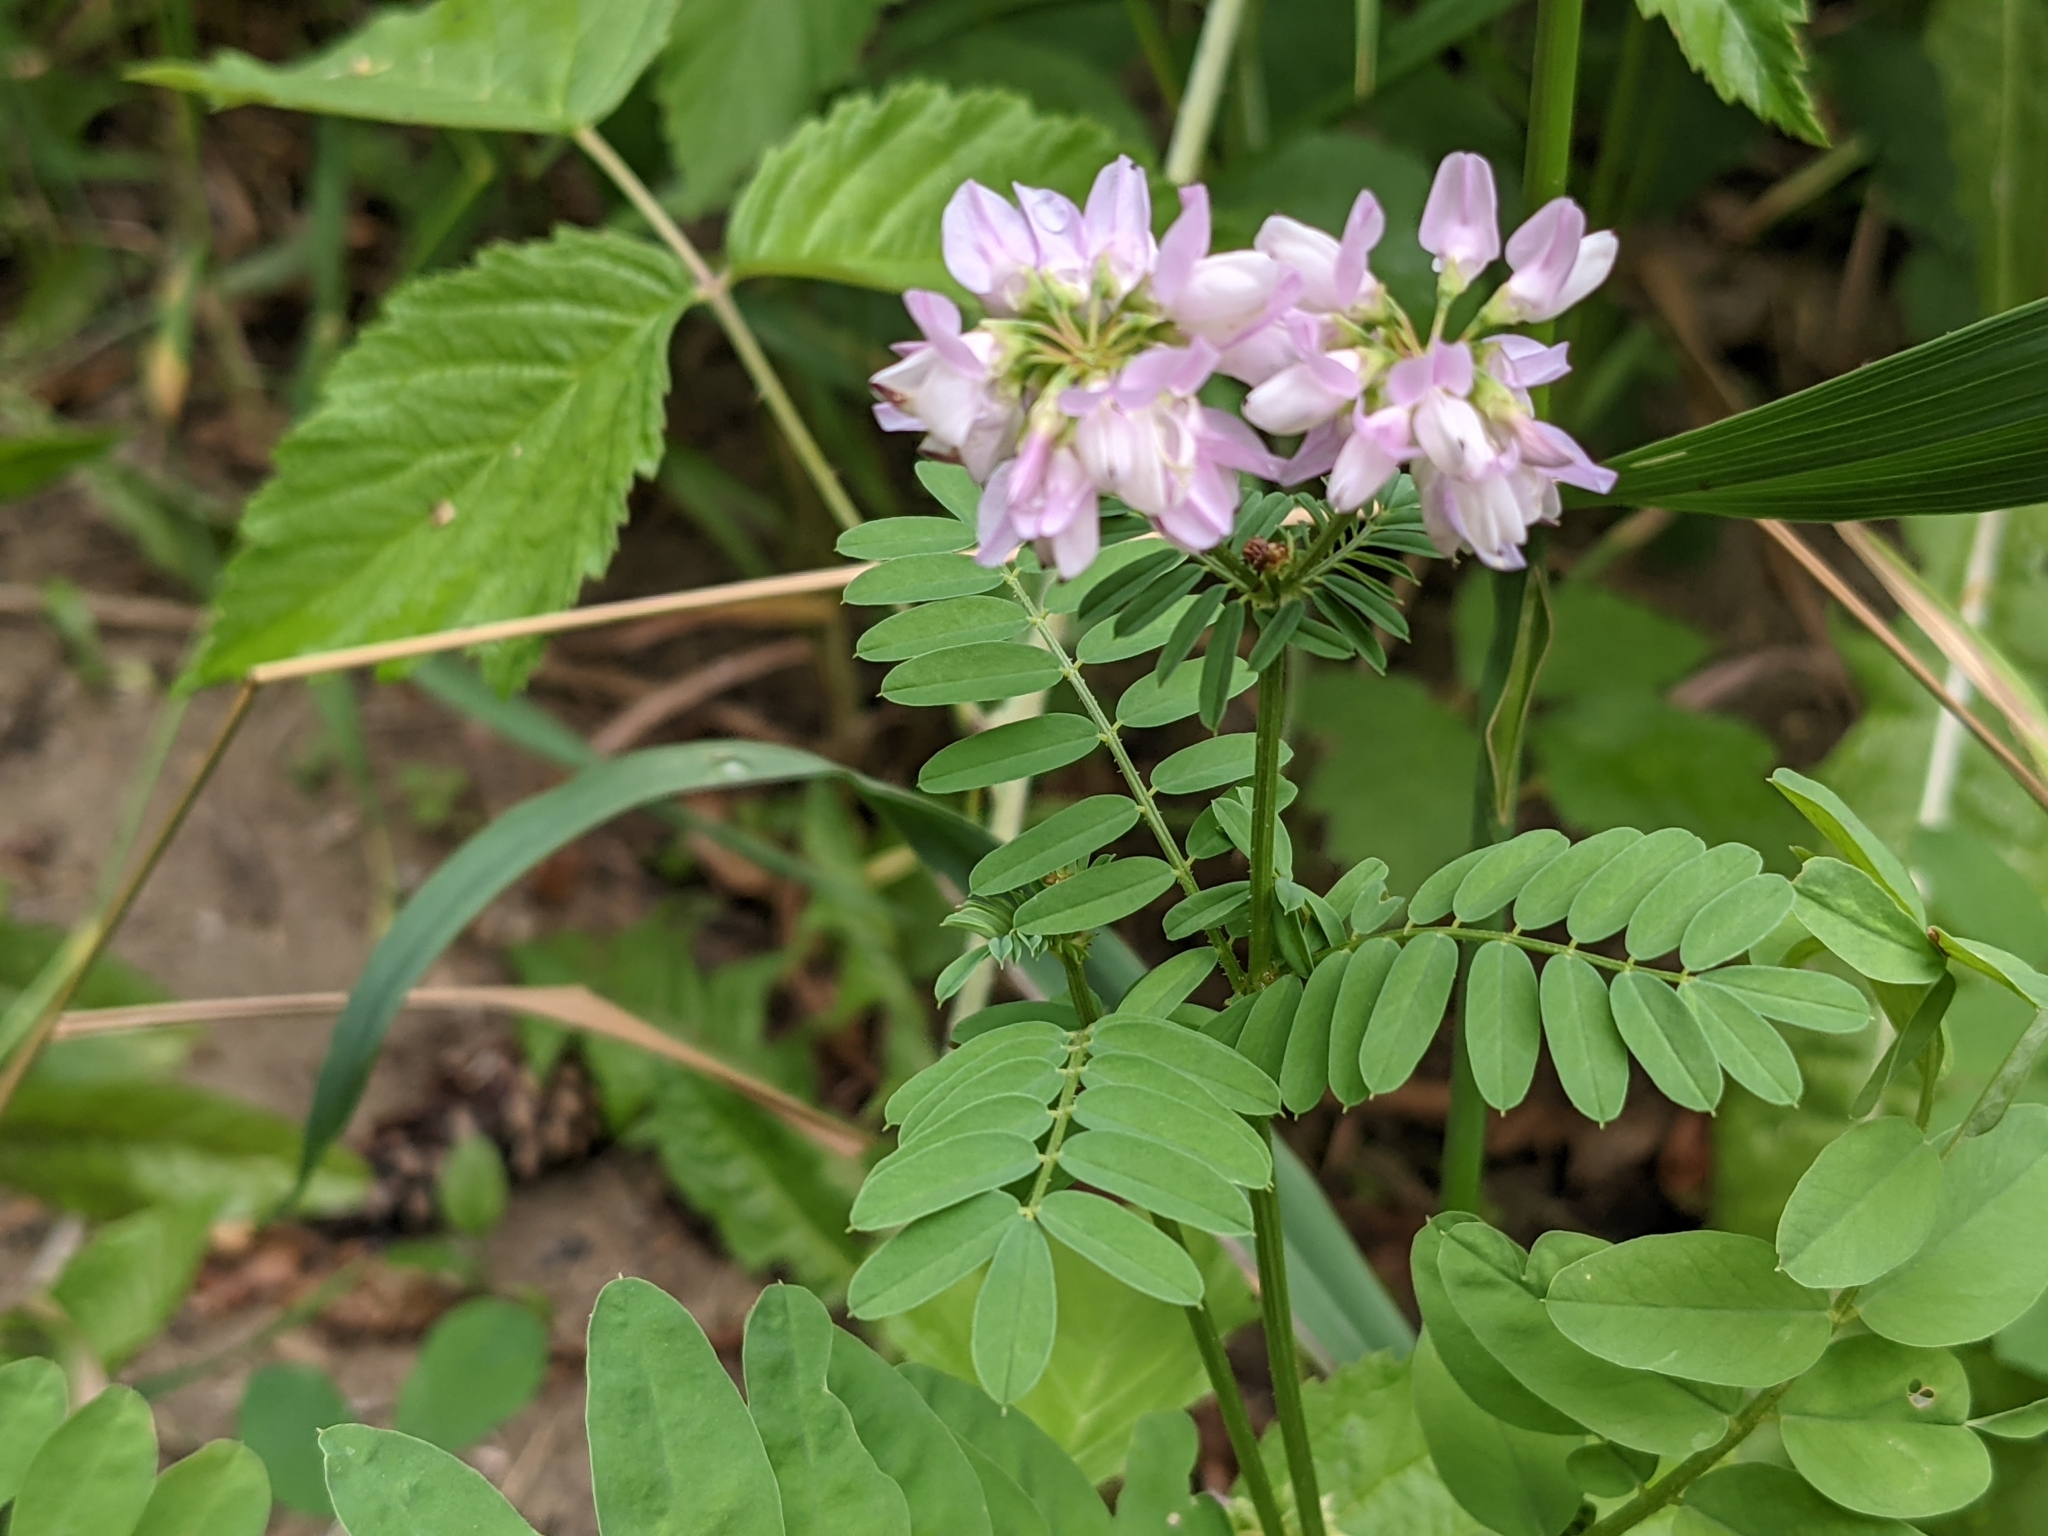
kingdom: Plantae
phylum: Tracheophyta
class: Magnoliopsida
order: Fabales
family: Fabaceae
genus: Coronilla
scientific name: Coronilla varia
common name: Crownvetch
